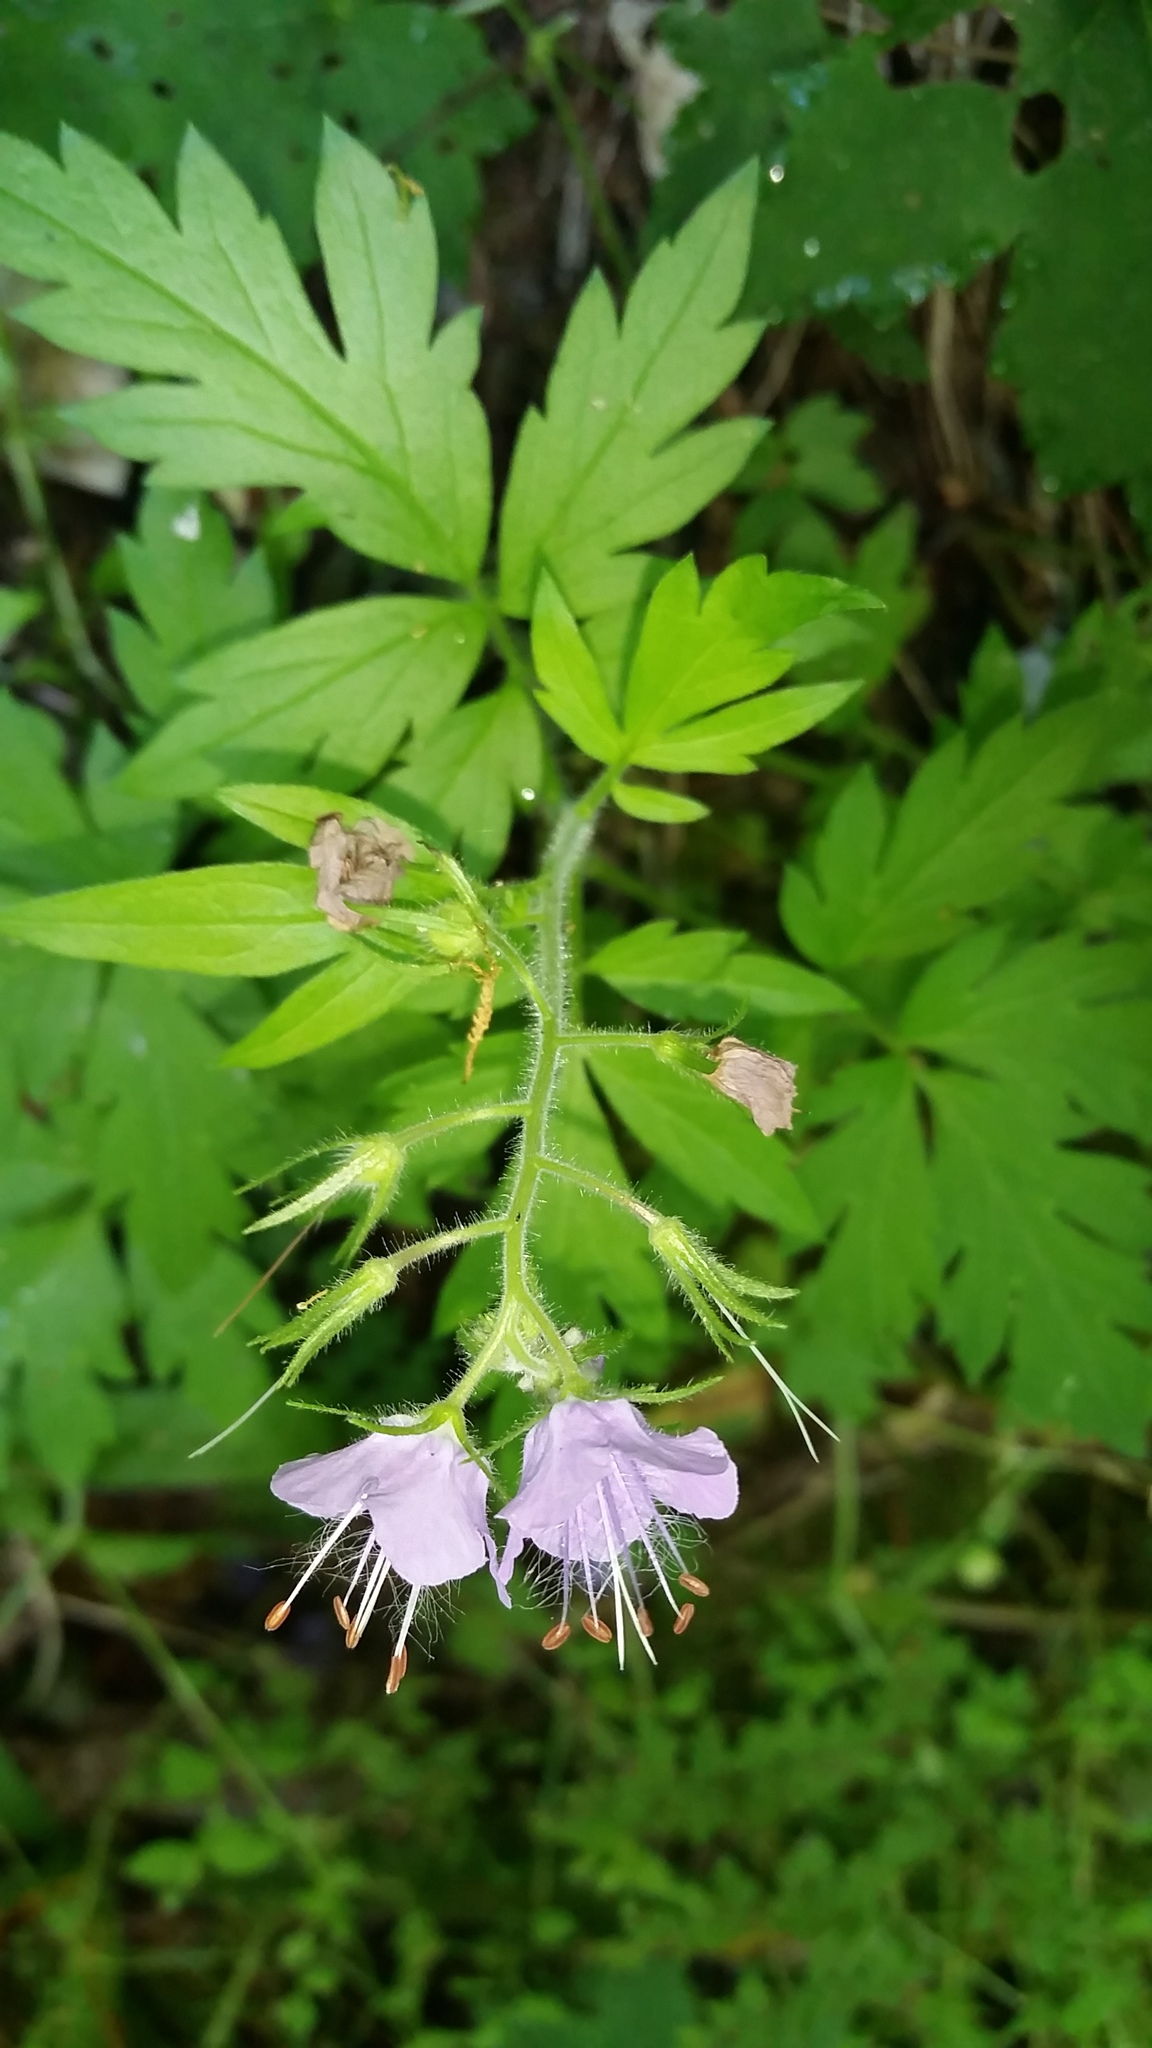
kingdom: Plantae
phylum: Tracheophyta
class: Magnoliopsida
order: Boraginales
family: Hydrophyllaceae
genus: Phacelia
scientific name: Phacelia bipinnatifida
